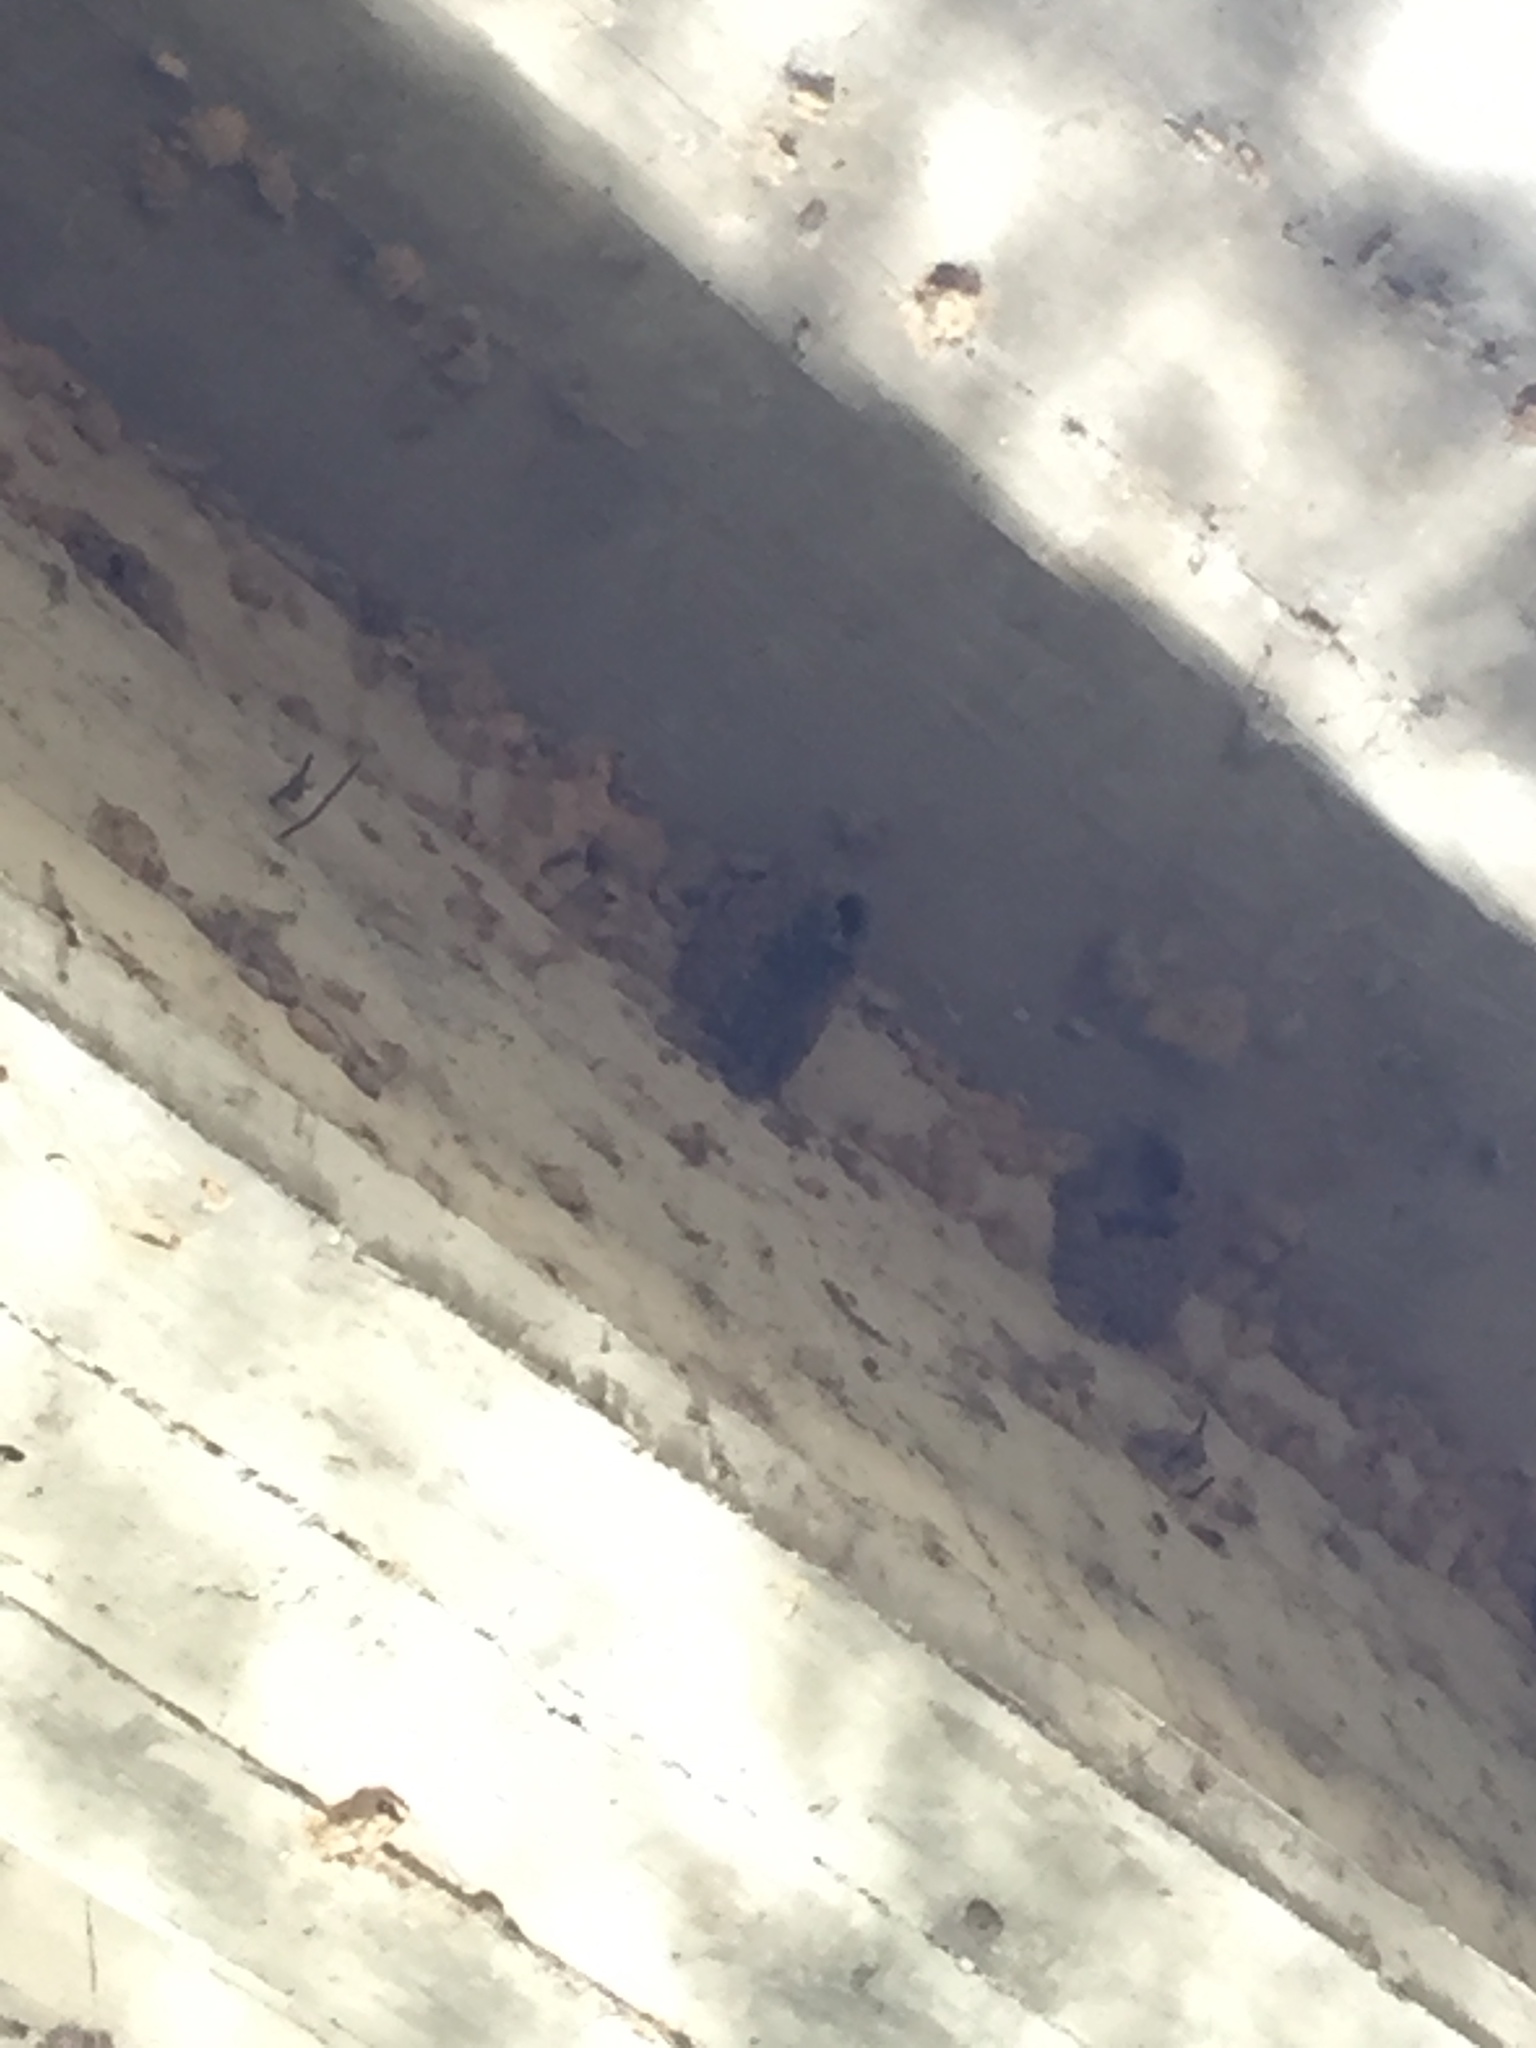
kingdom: Animalia
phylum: Chordata
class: Aves
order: Passeriformes
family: Hirundinidae
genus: Petrochelidon
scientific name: Petrochelidon pyrrhonota
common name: American cliff swallow
